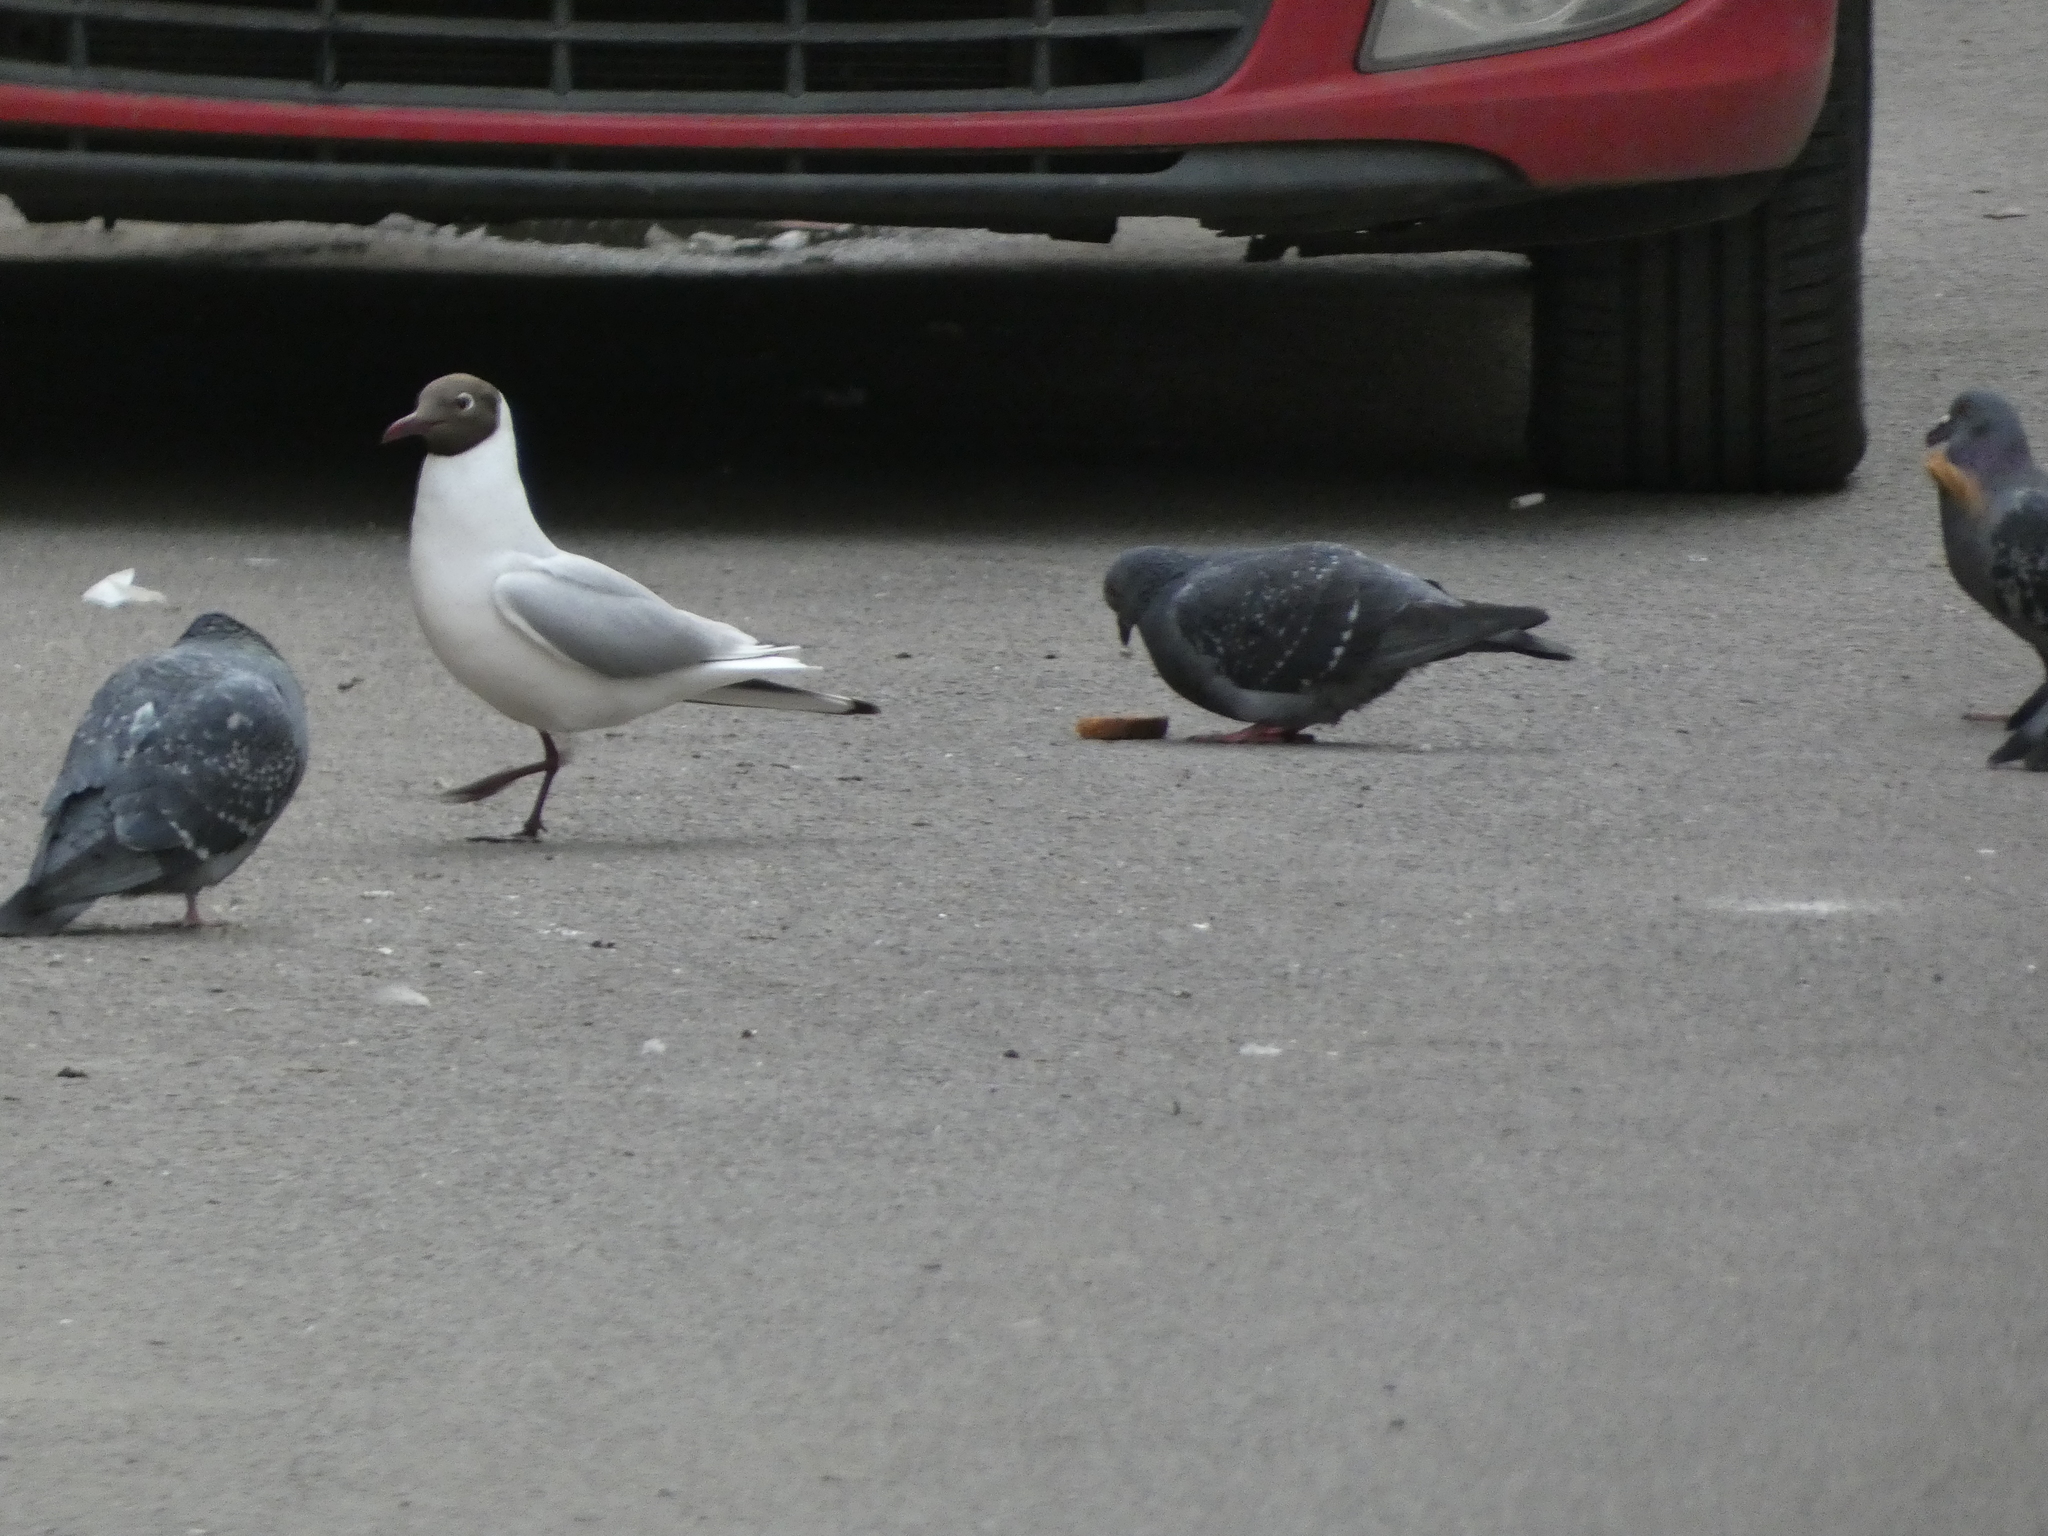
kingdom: Animalia
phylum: Chordata
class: Aves
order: Charadriiformes
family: Laridae
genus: Chroicocephalus
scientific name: Chroicocephalus ridibundus
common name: Black-headed gull
